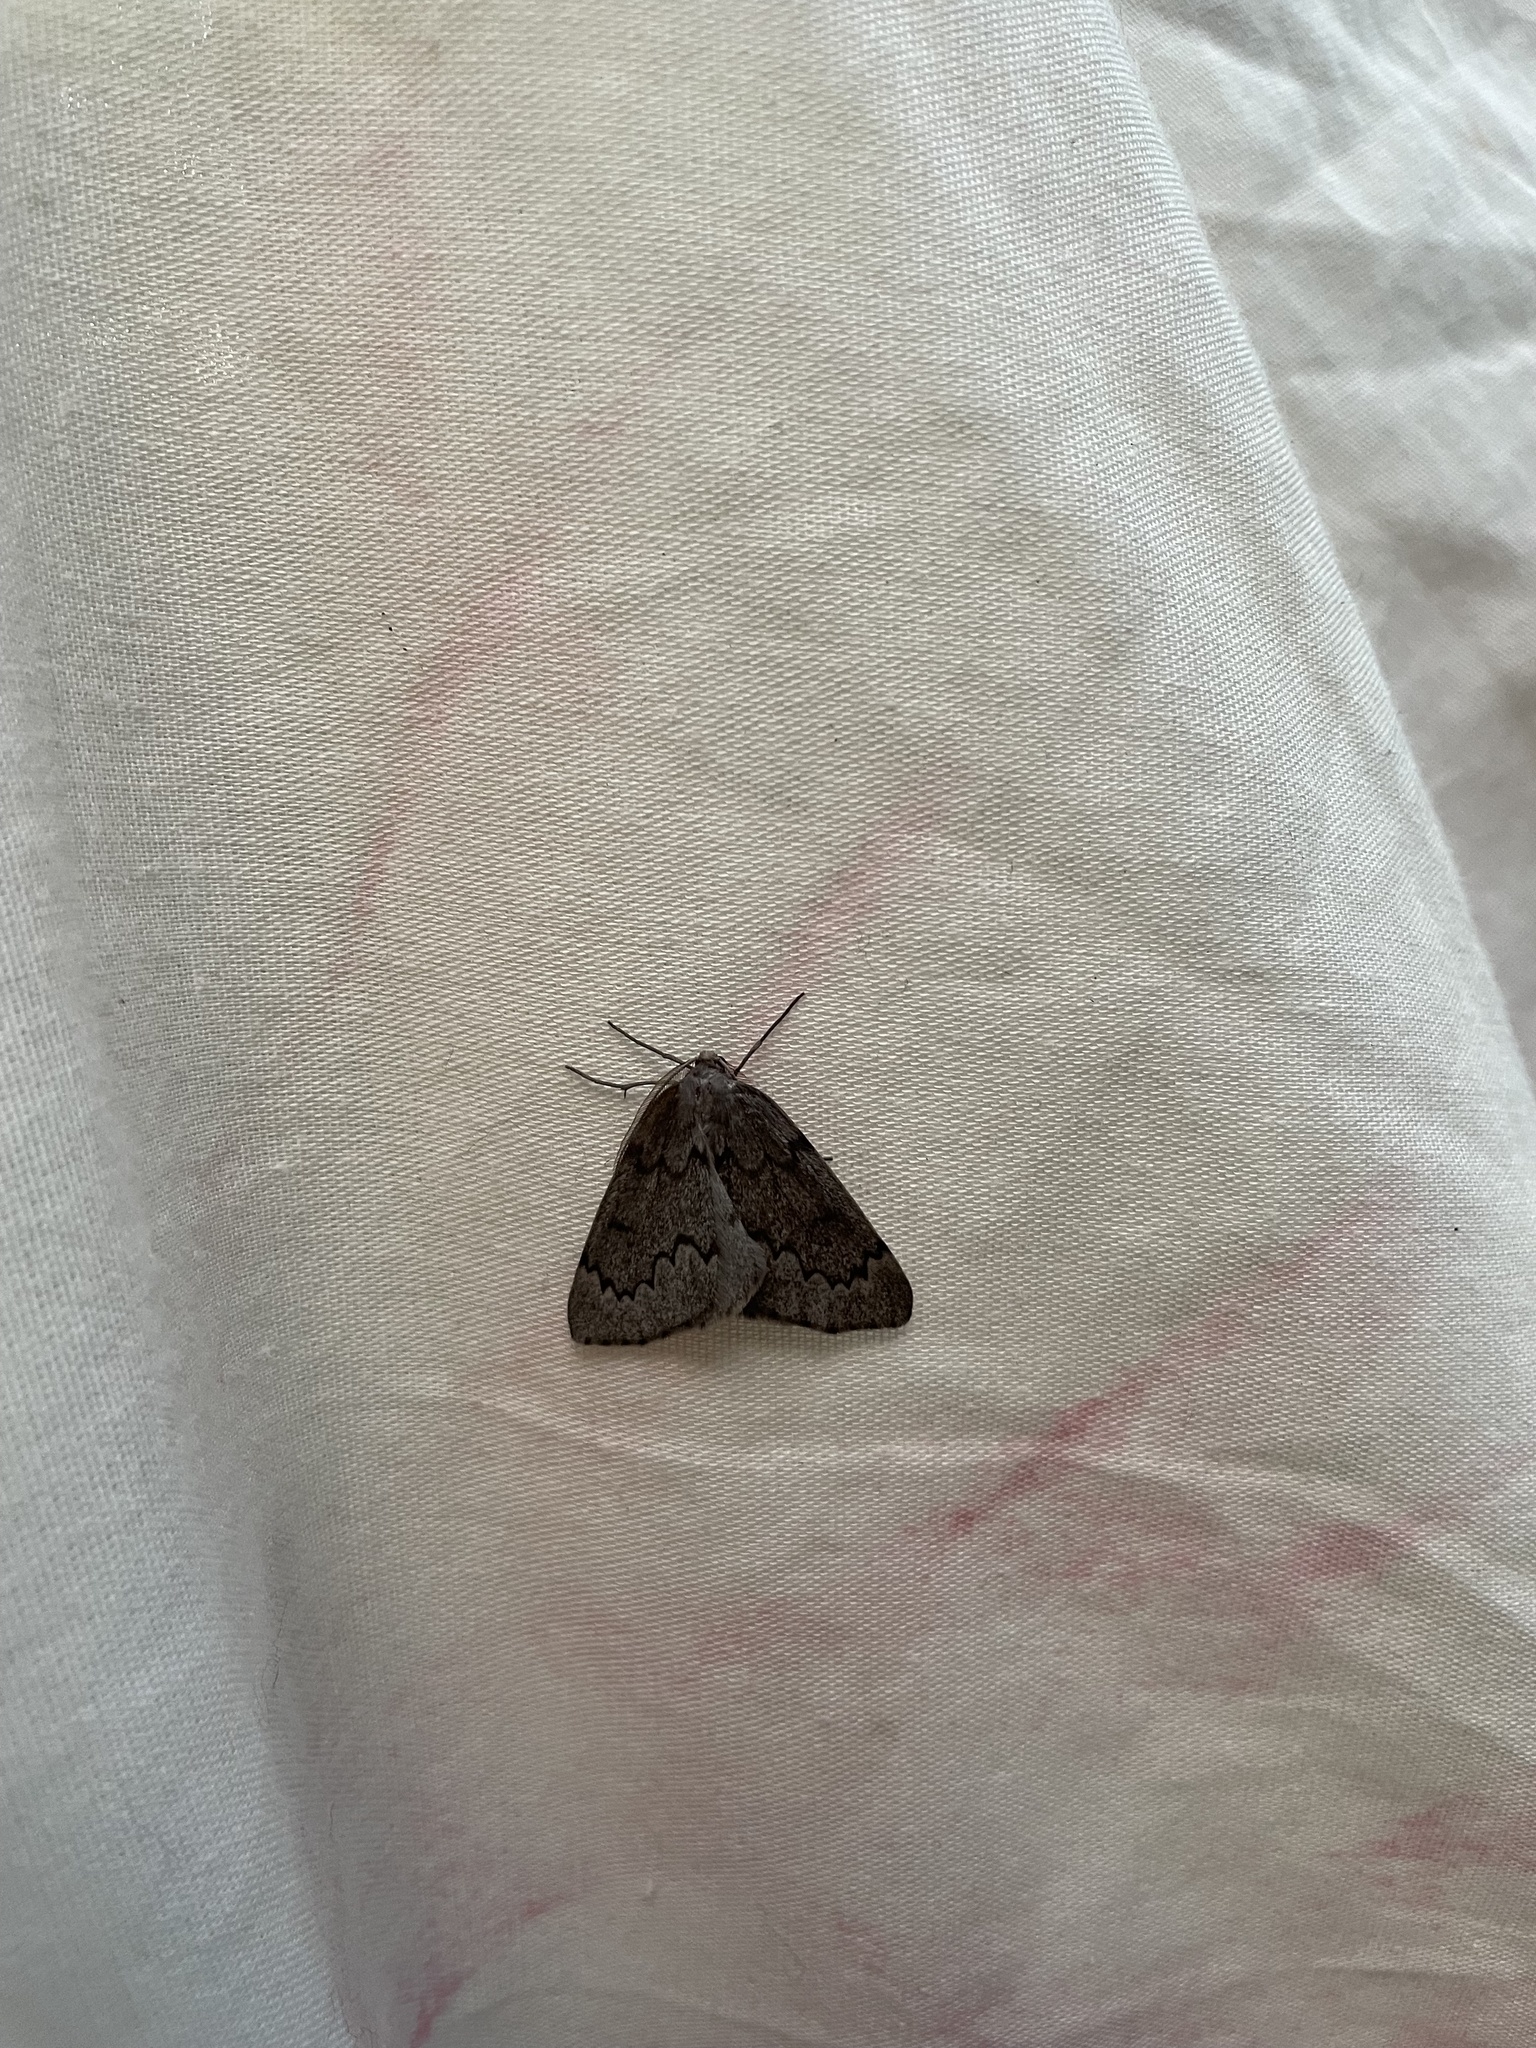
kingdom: Animalia
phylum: Arthropoda
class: Insecta
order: Lepidoptera
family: Geometridae
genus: Nepytia
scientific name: Nepytia pellucidaria
